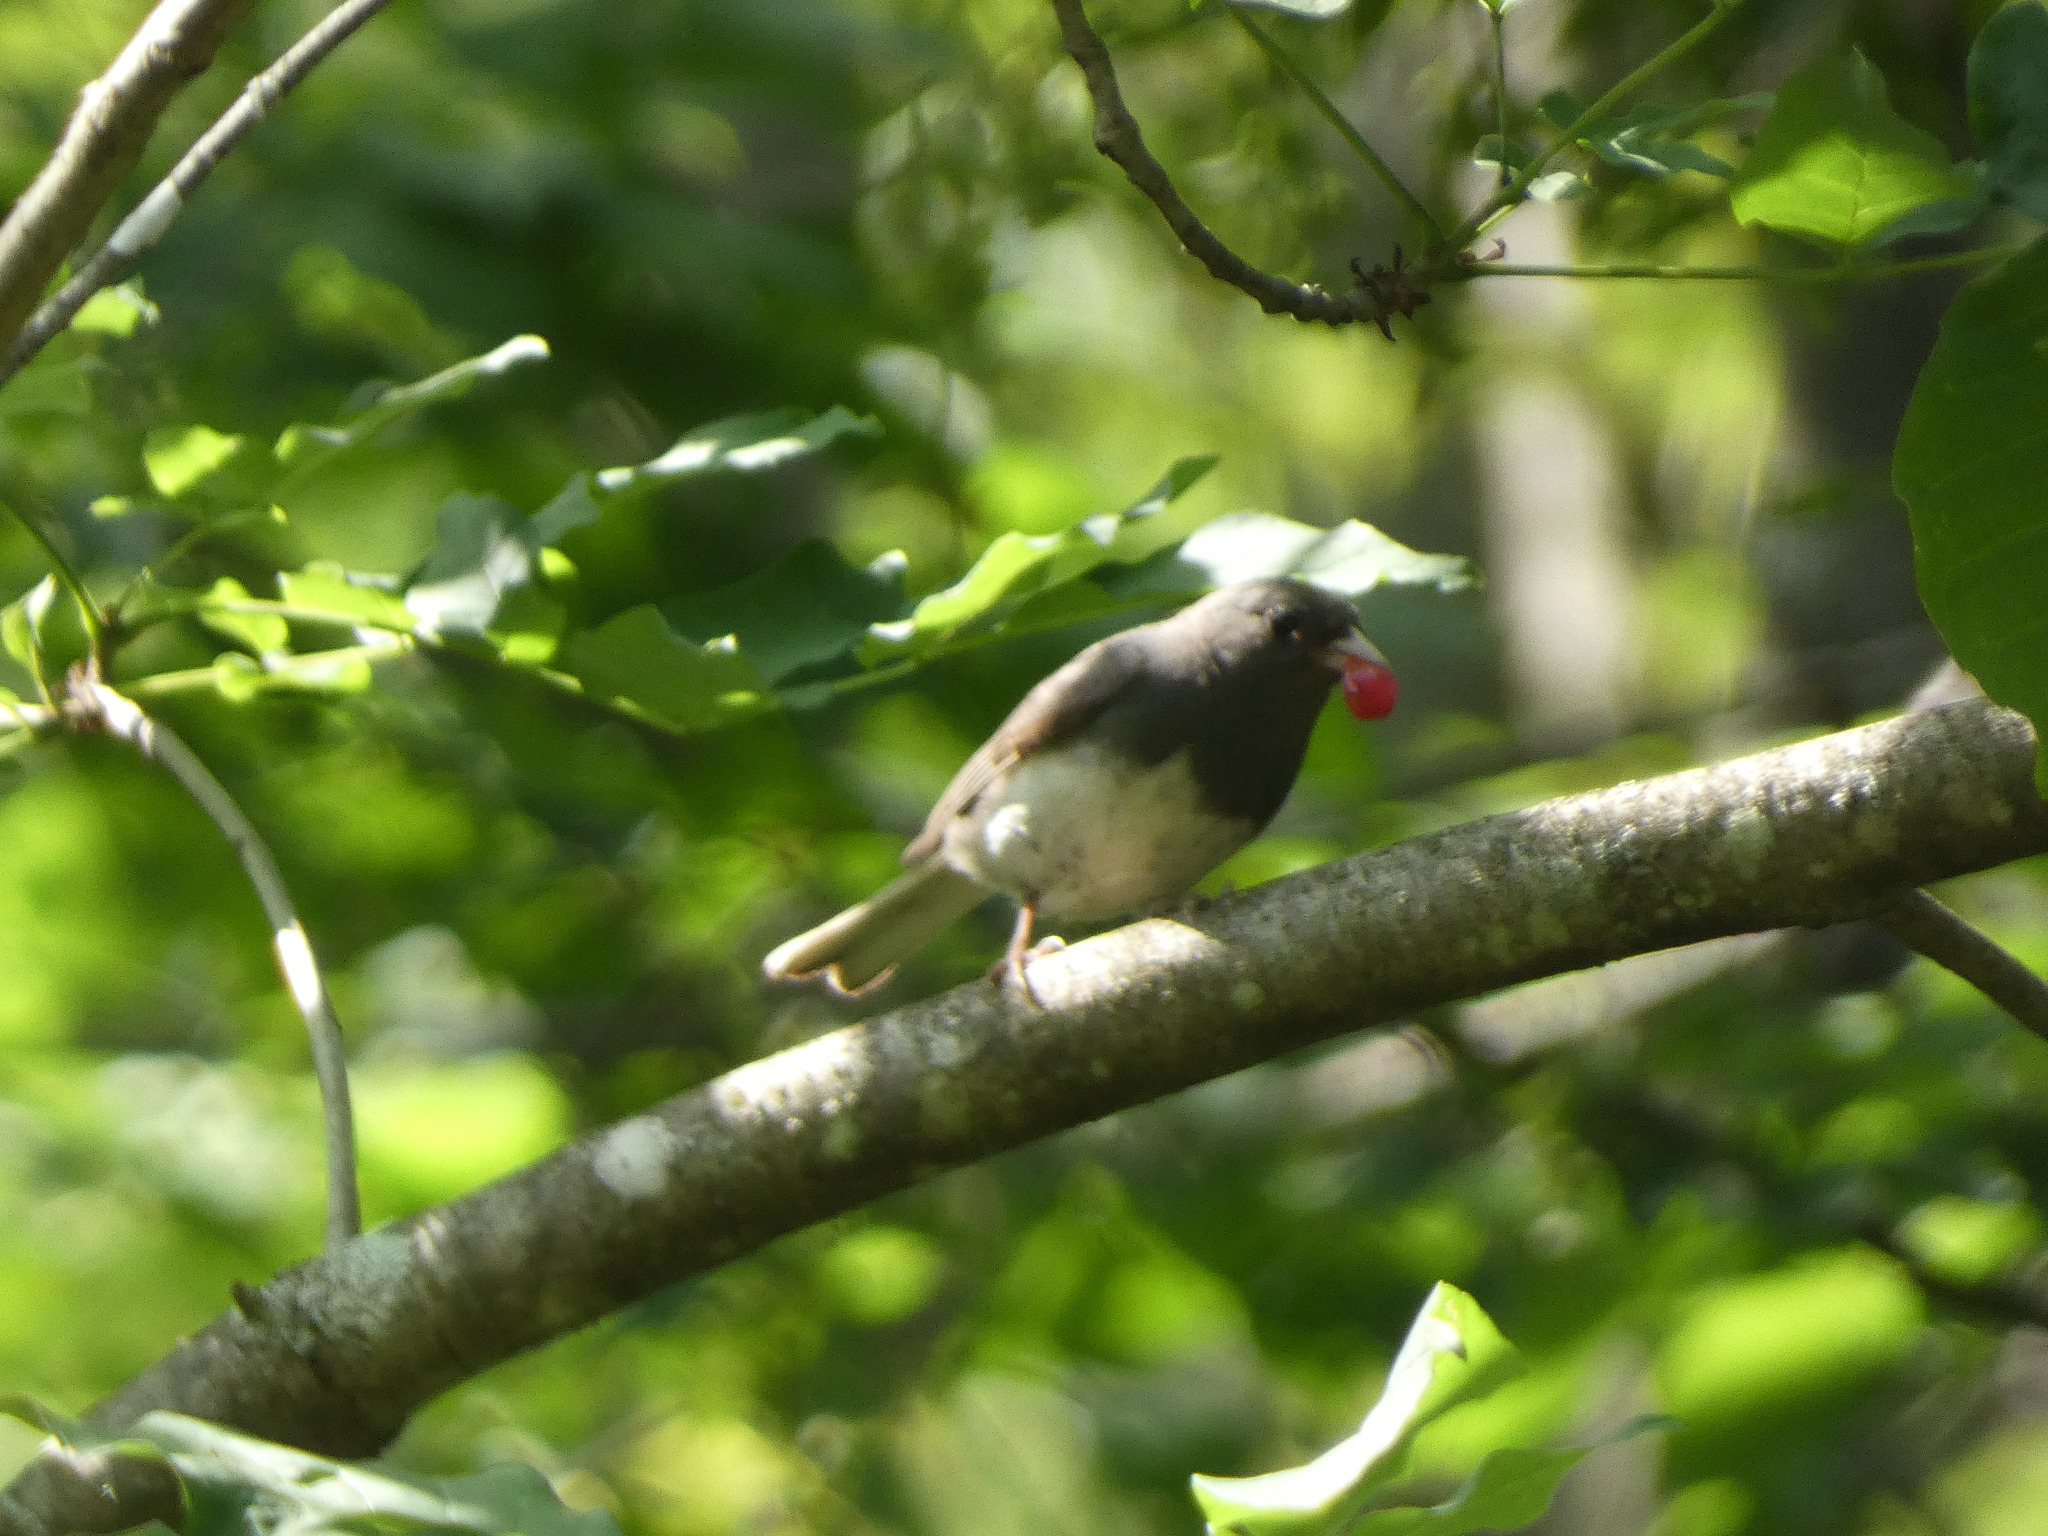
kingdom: Animalia
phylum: Chordata
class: Aves
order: Passeriformes
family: Passerellidae
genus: Junco
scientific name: Junco hyemalis
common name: Dark-eyed junco
